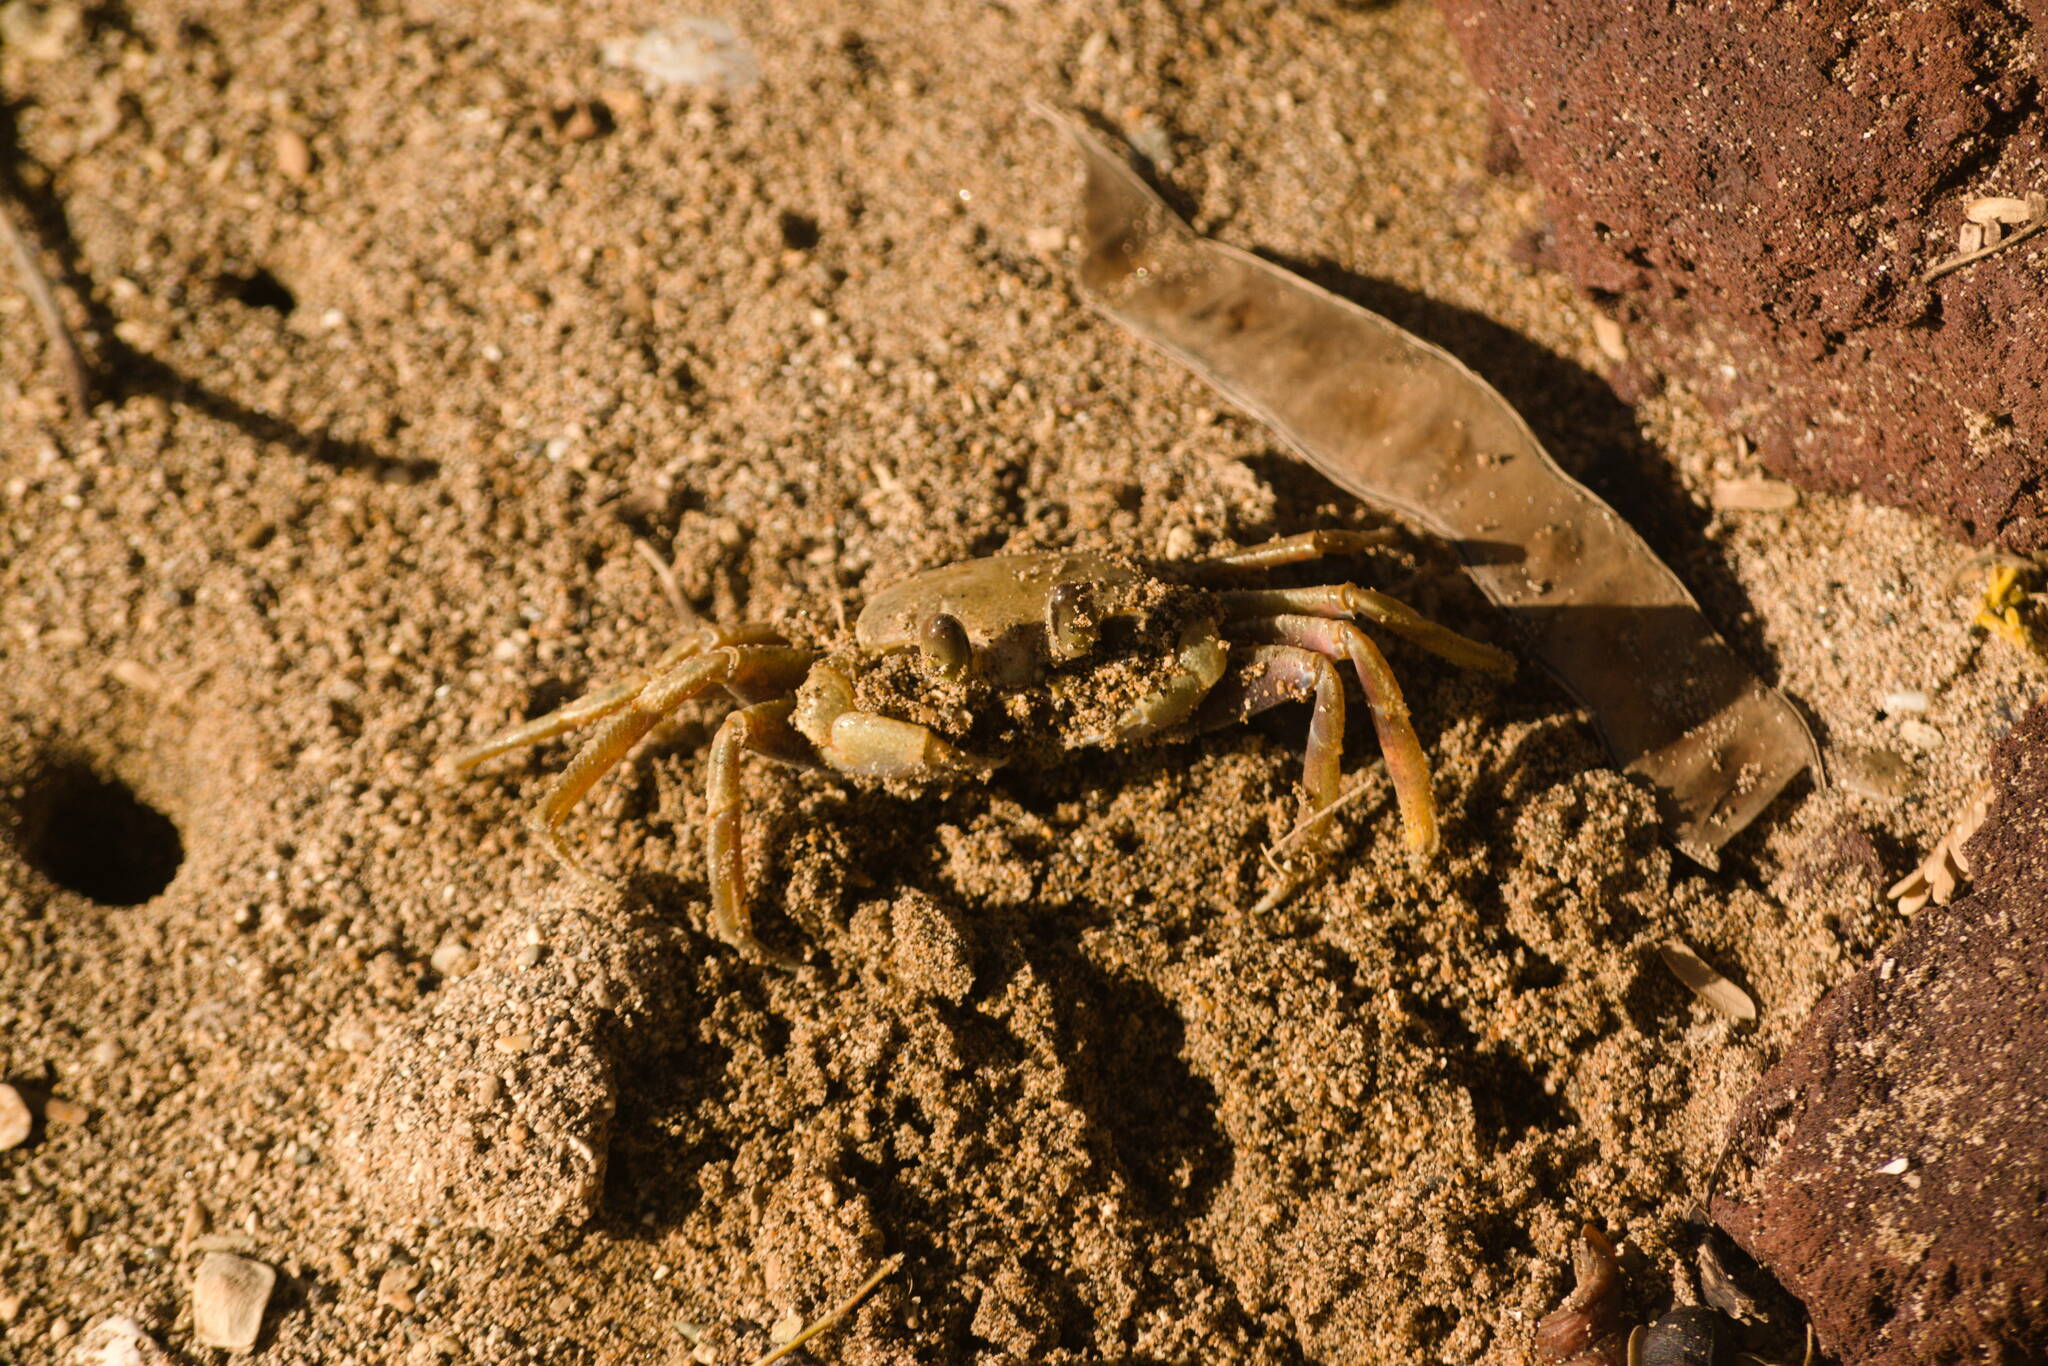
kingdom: Animalia
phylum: Arthropoda
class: Malacostraca
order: Decapoda
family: Ocypodidae
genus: Ocypode
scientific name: Ocypode ceratophthalmus
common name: Indo-pacific ghost crab
